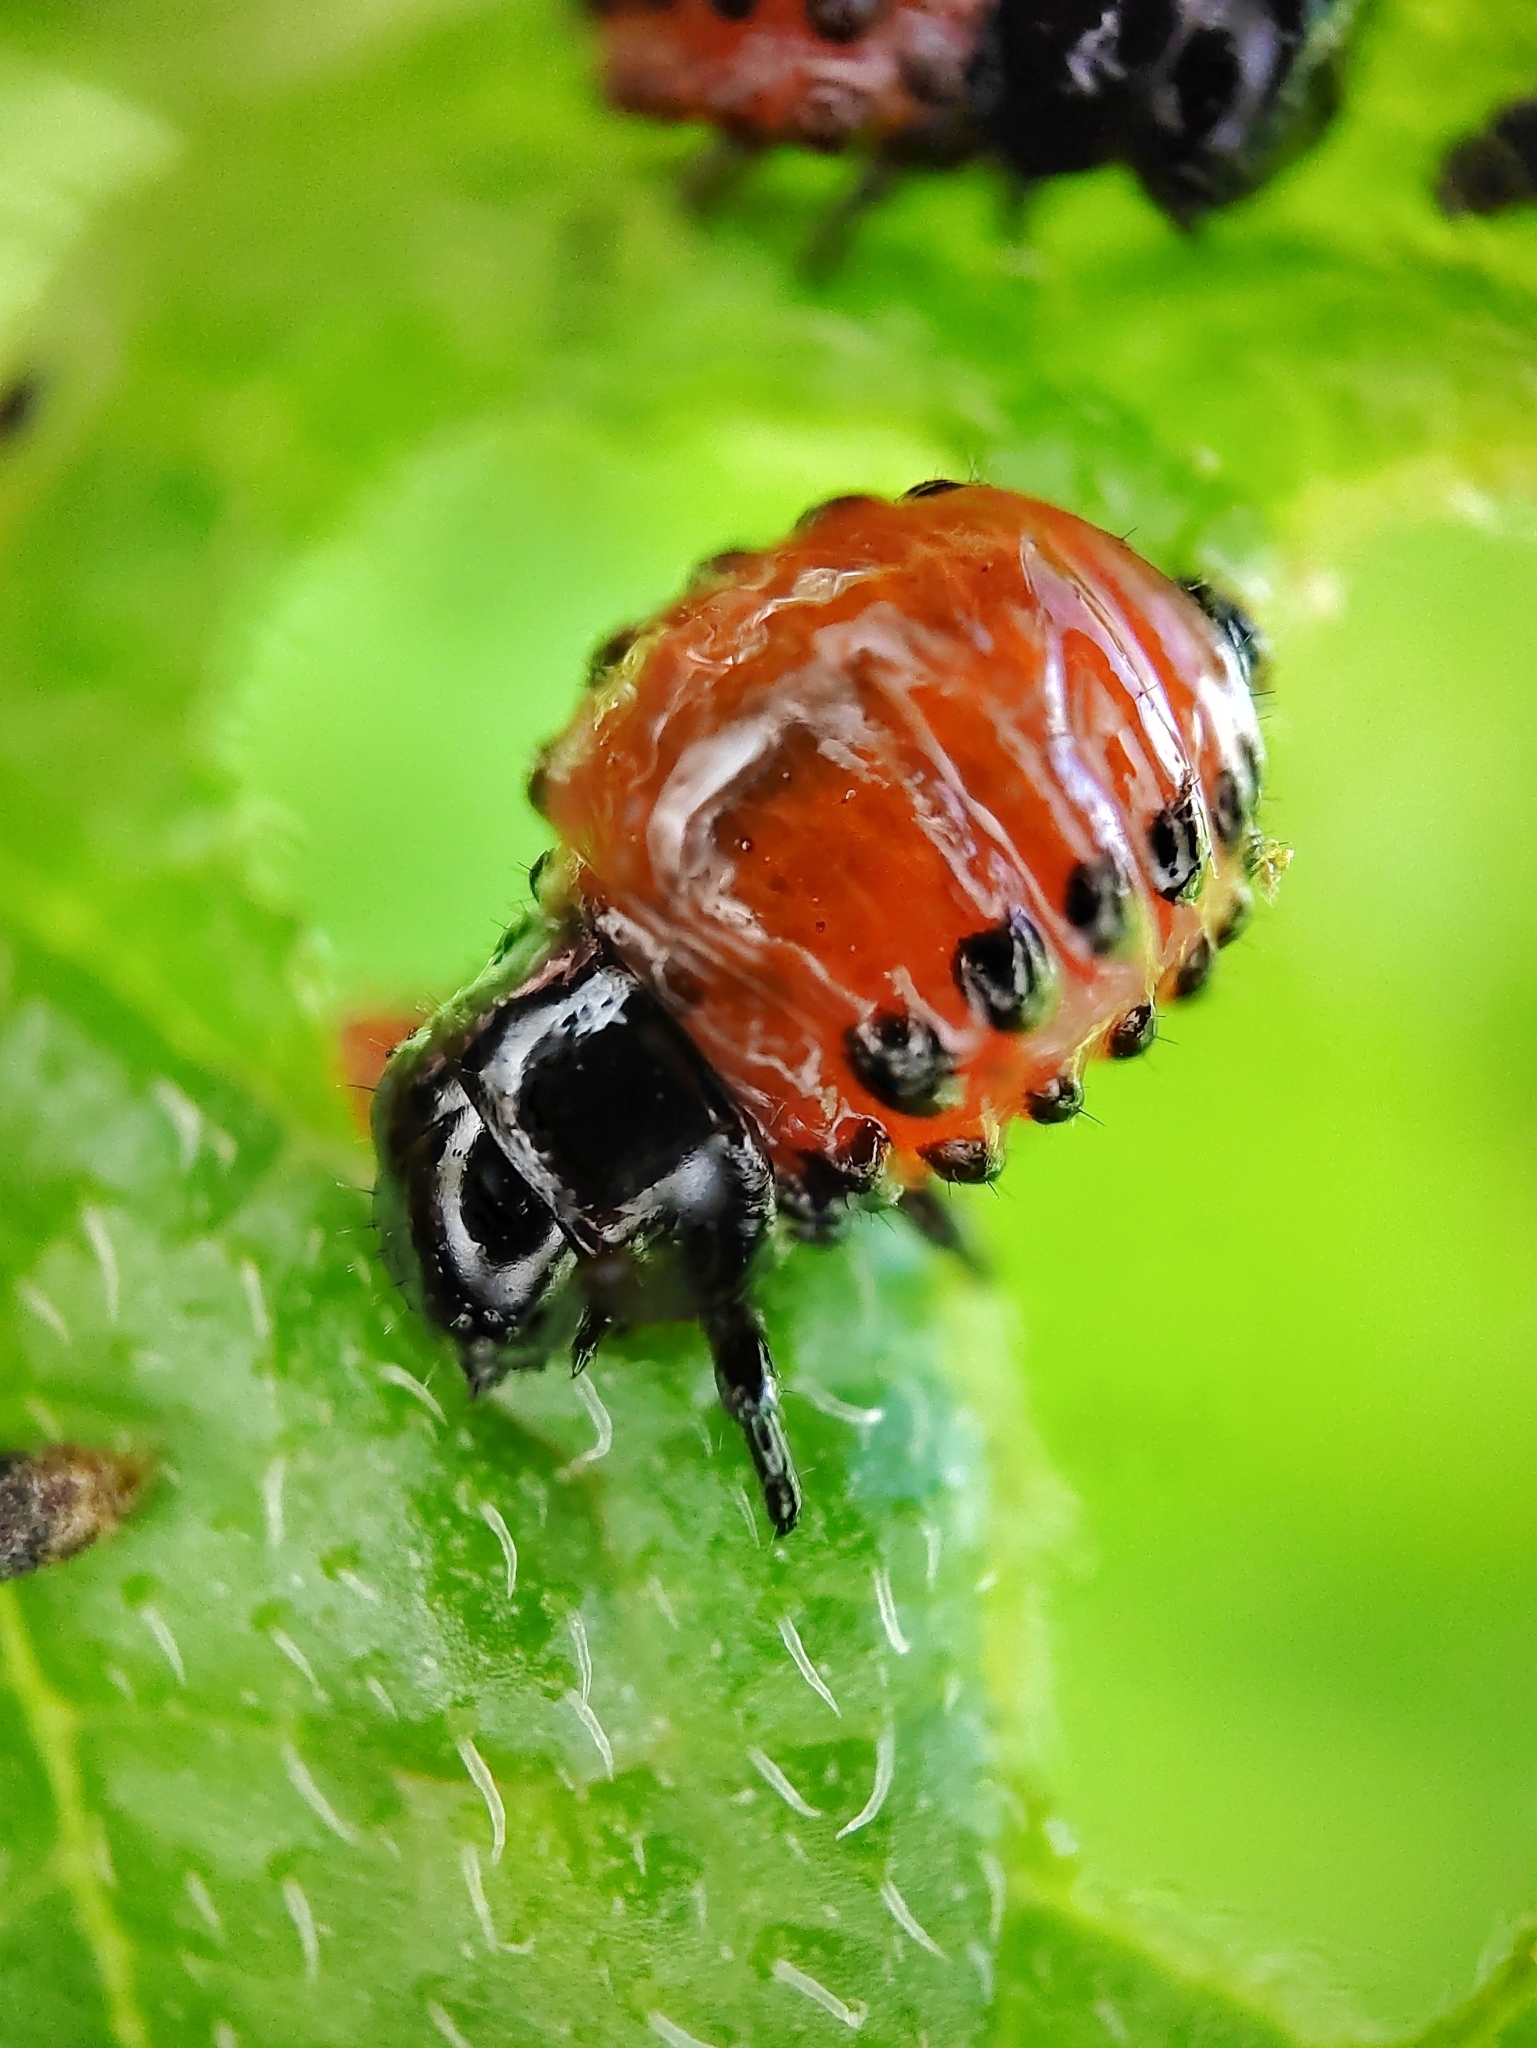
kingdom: Animalia
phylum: Arthropoda
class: Insecta
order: Coleoptera
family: Chrysomelidae
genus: Leptinotarsa
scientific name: Leptinotarsa decemlineata
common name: Colorado potato beetle
